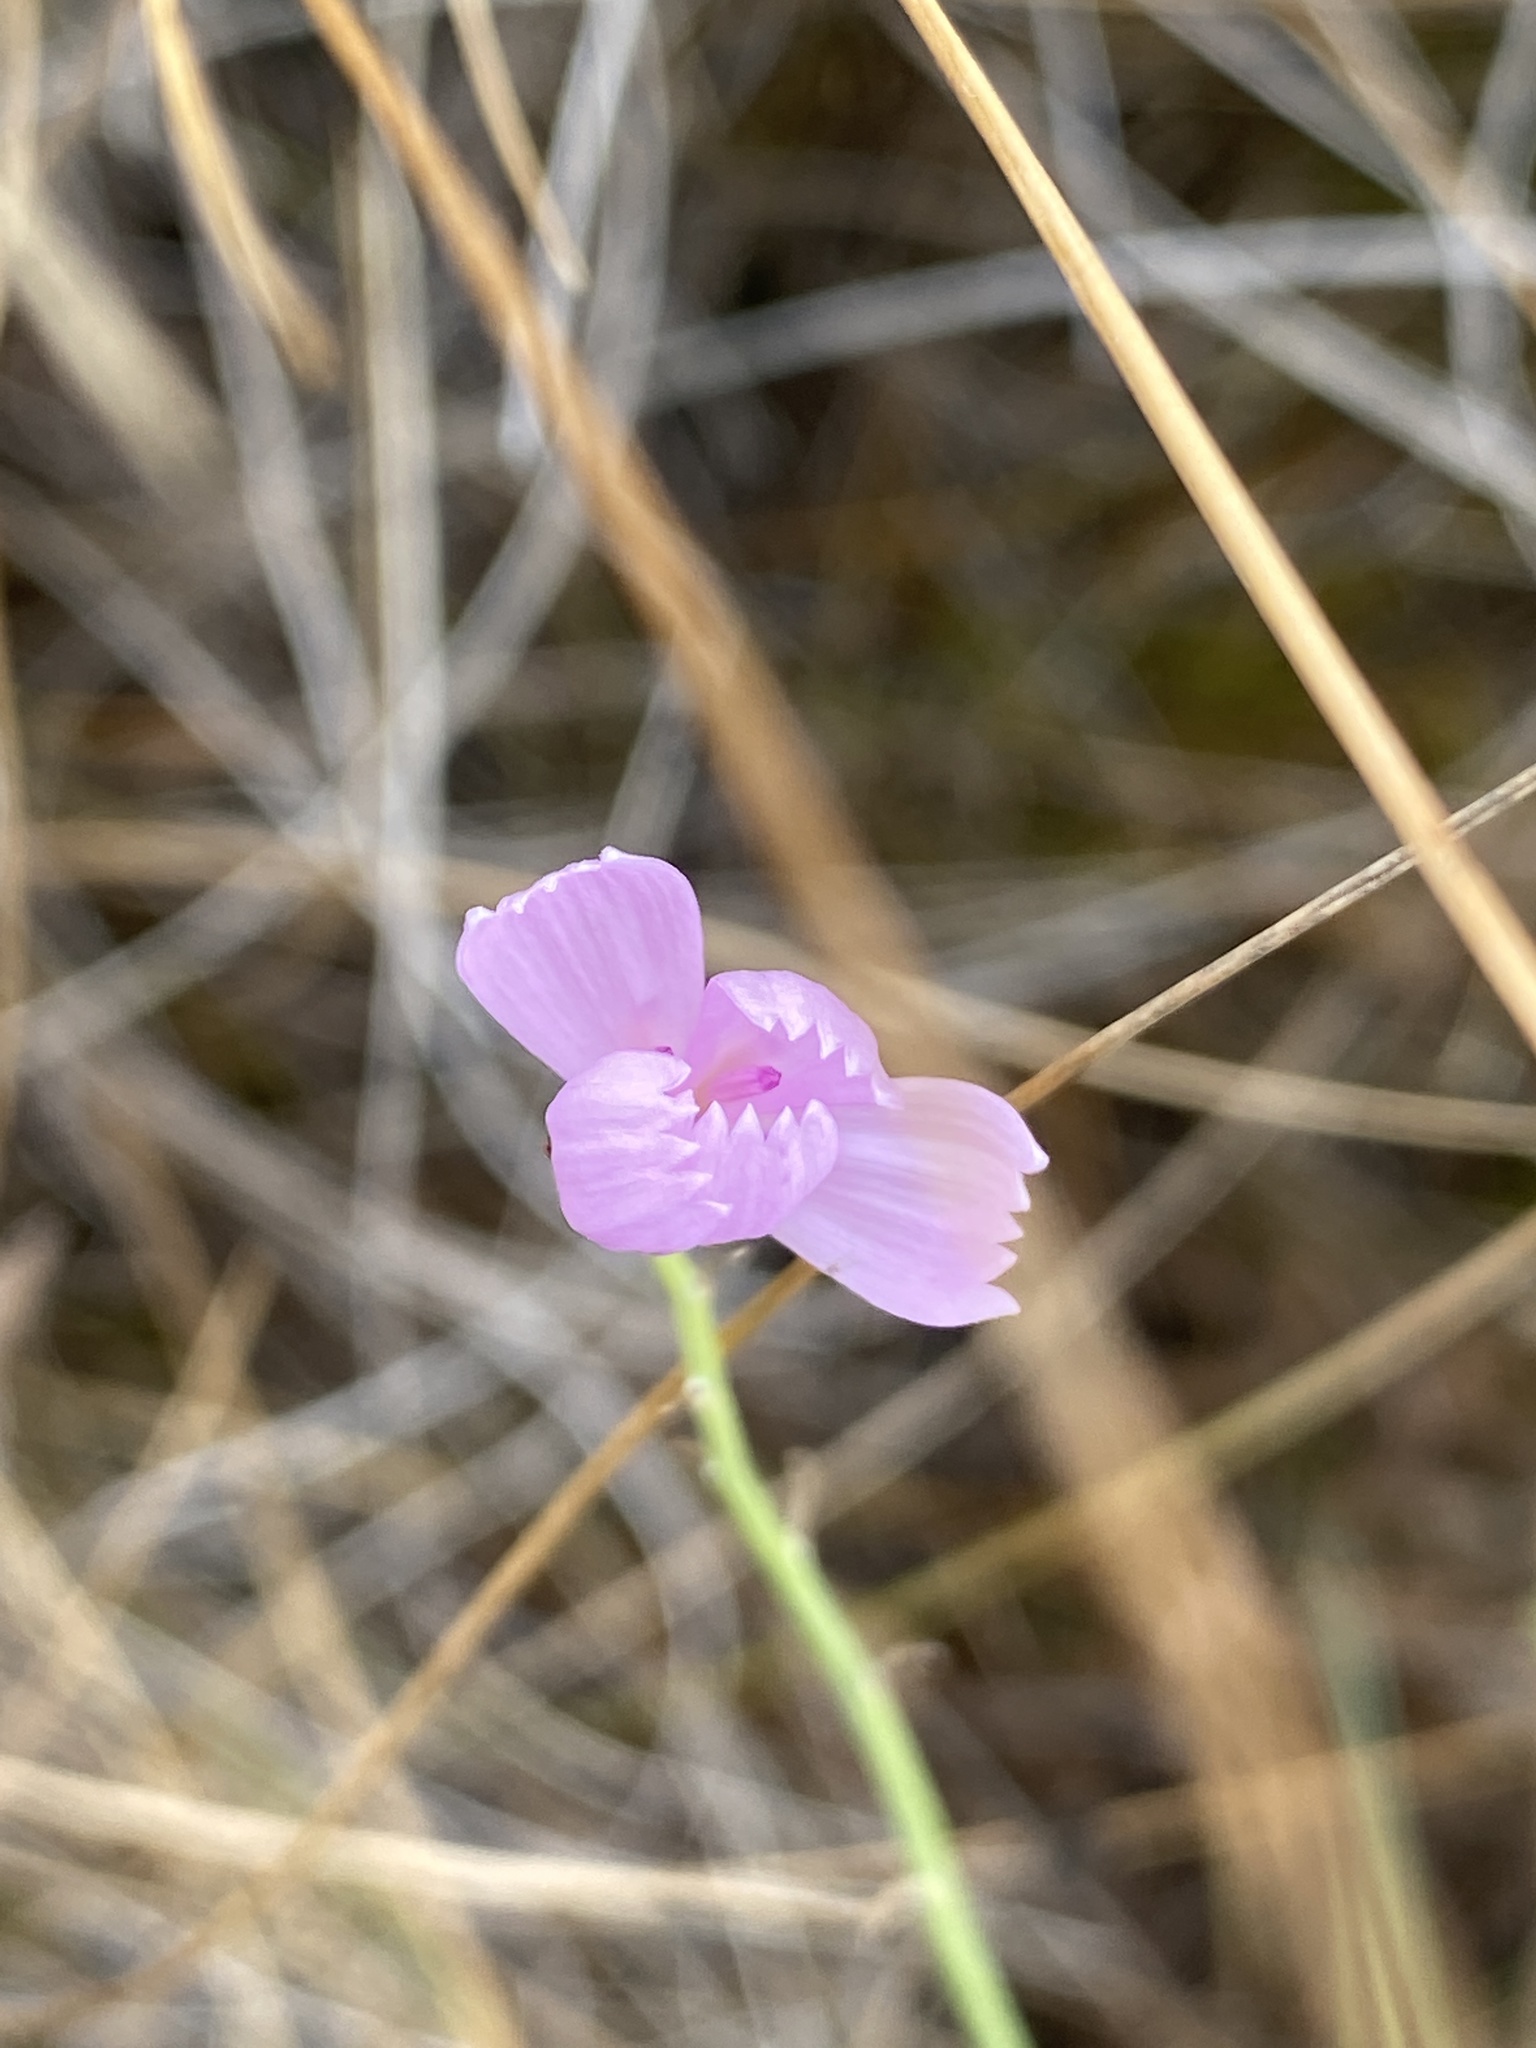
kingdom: Plantae
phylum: Tracheophyta
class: Magnoliopsida
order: Asterales
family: Asteraceae
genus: Lygodesmia
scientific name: Lygodesmia juncea
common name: Common skeletonweed
